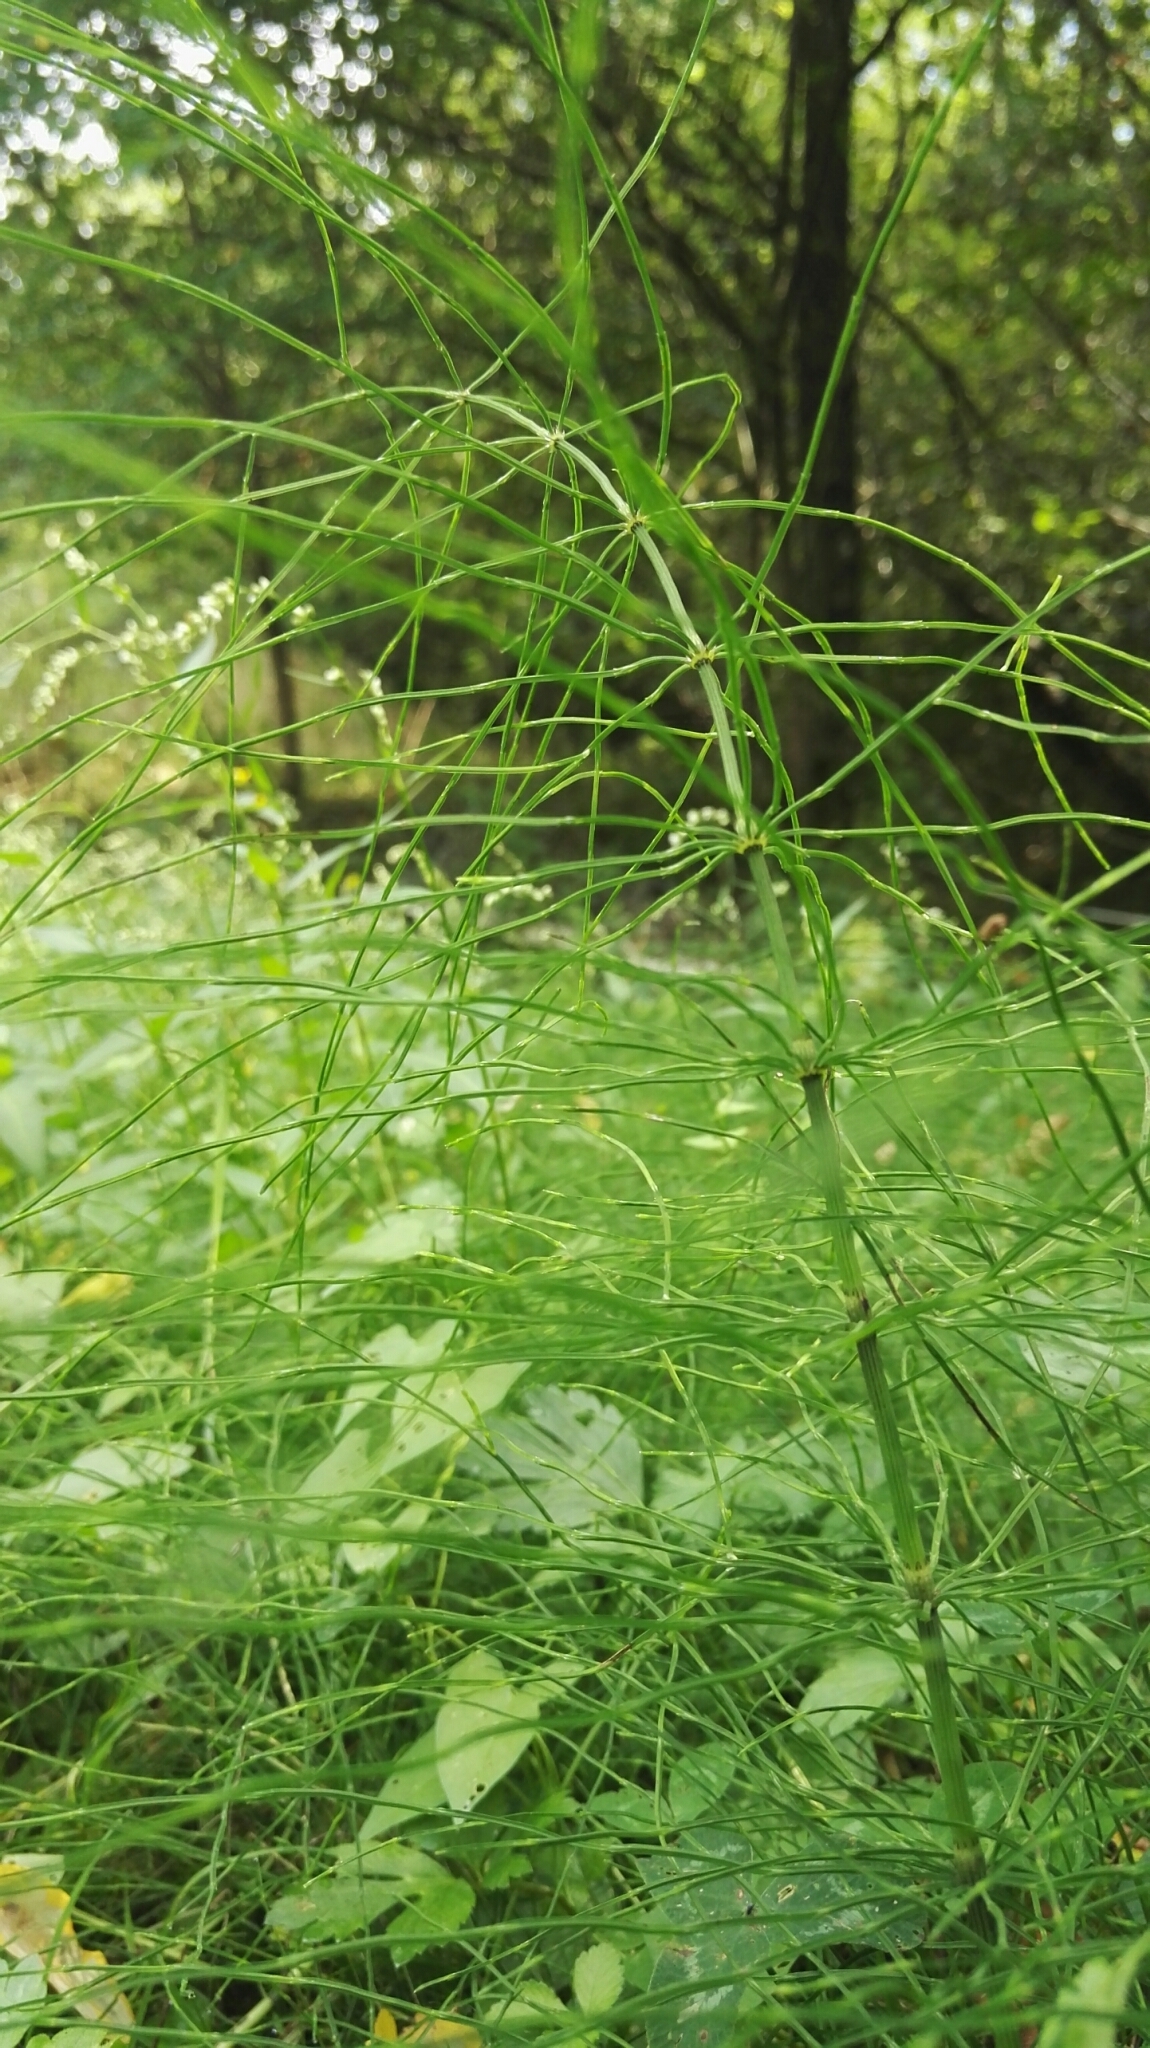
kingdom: Plantae
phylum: Tracheophyta
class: Polypodiopsida
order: Equisetales
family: Equisetaceae
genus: Equisetum
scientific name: Equisetum arvense
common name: Field horsetail
